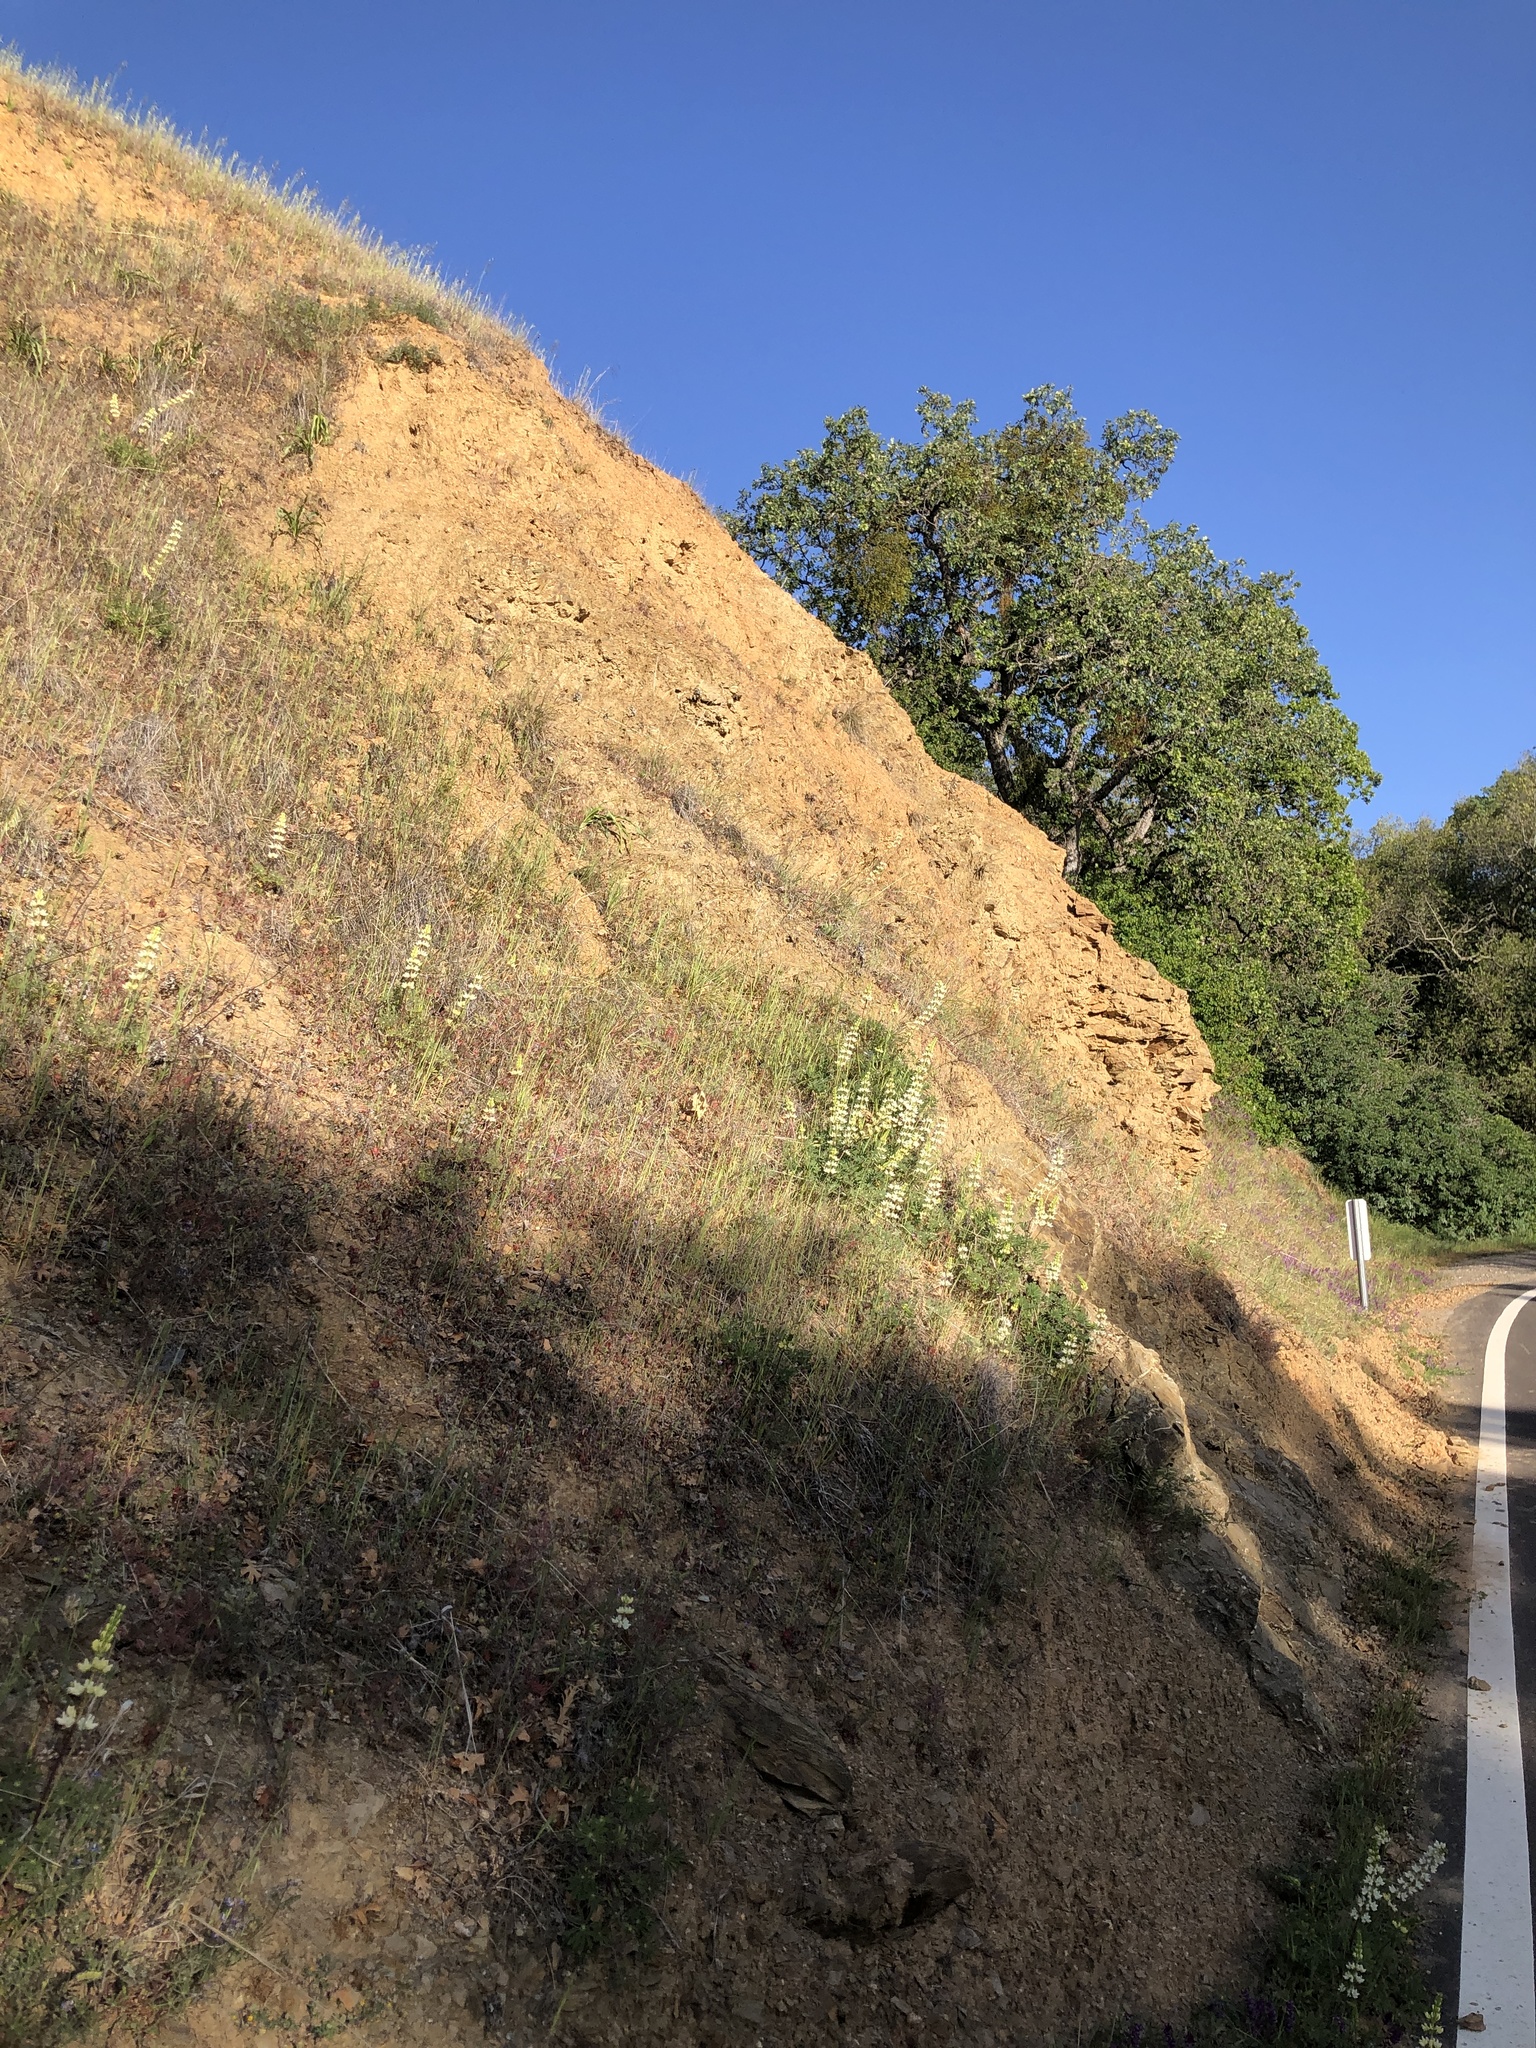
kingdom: Plantae
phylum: Tracheophyta
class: Magnoliopsida
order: Fabales
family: Fabaceae
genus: Lupinus
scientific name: Lupinus microcarpus
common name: Chick lupine
